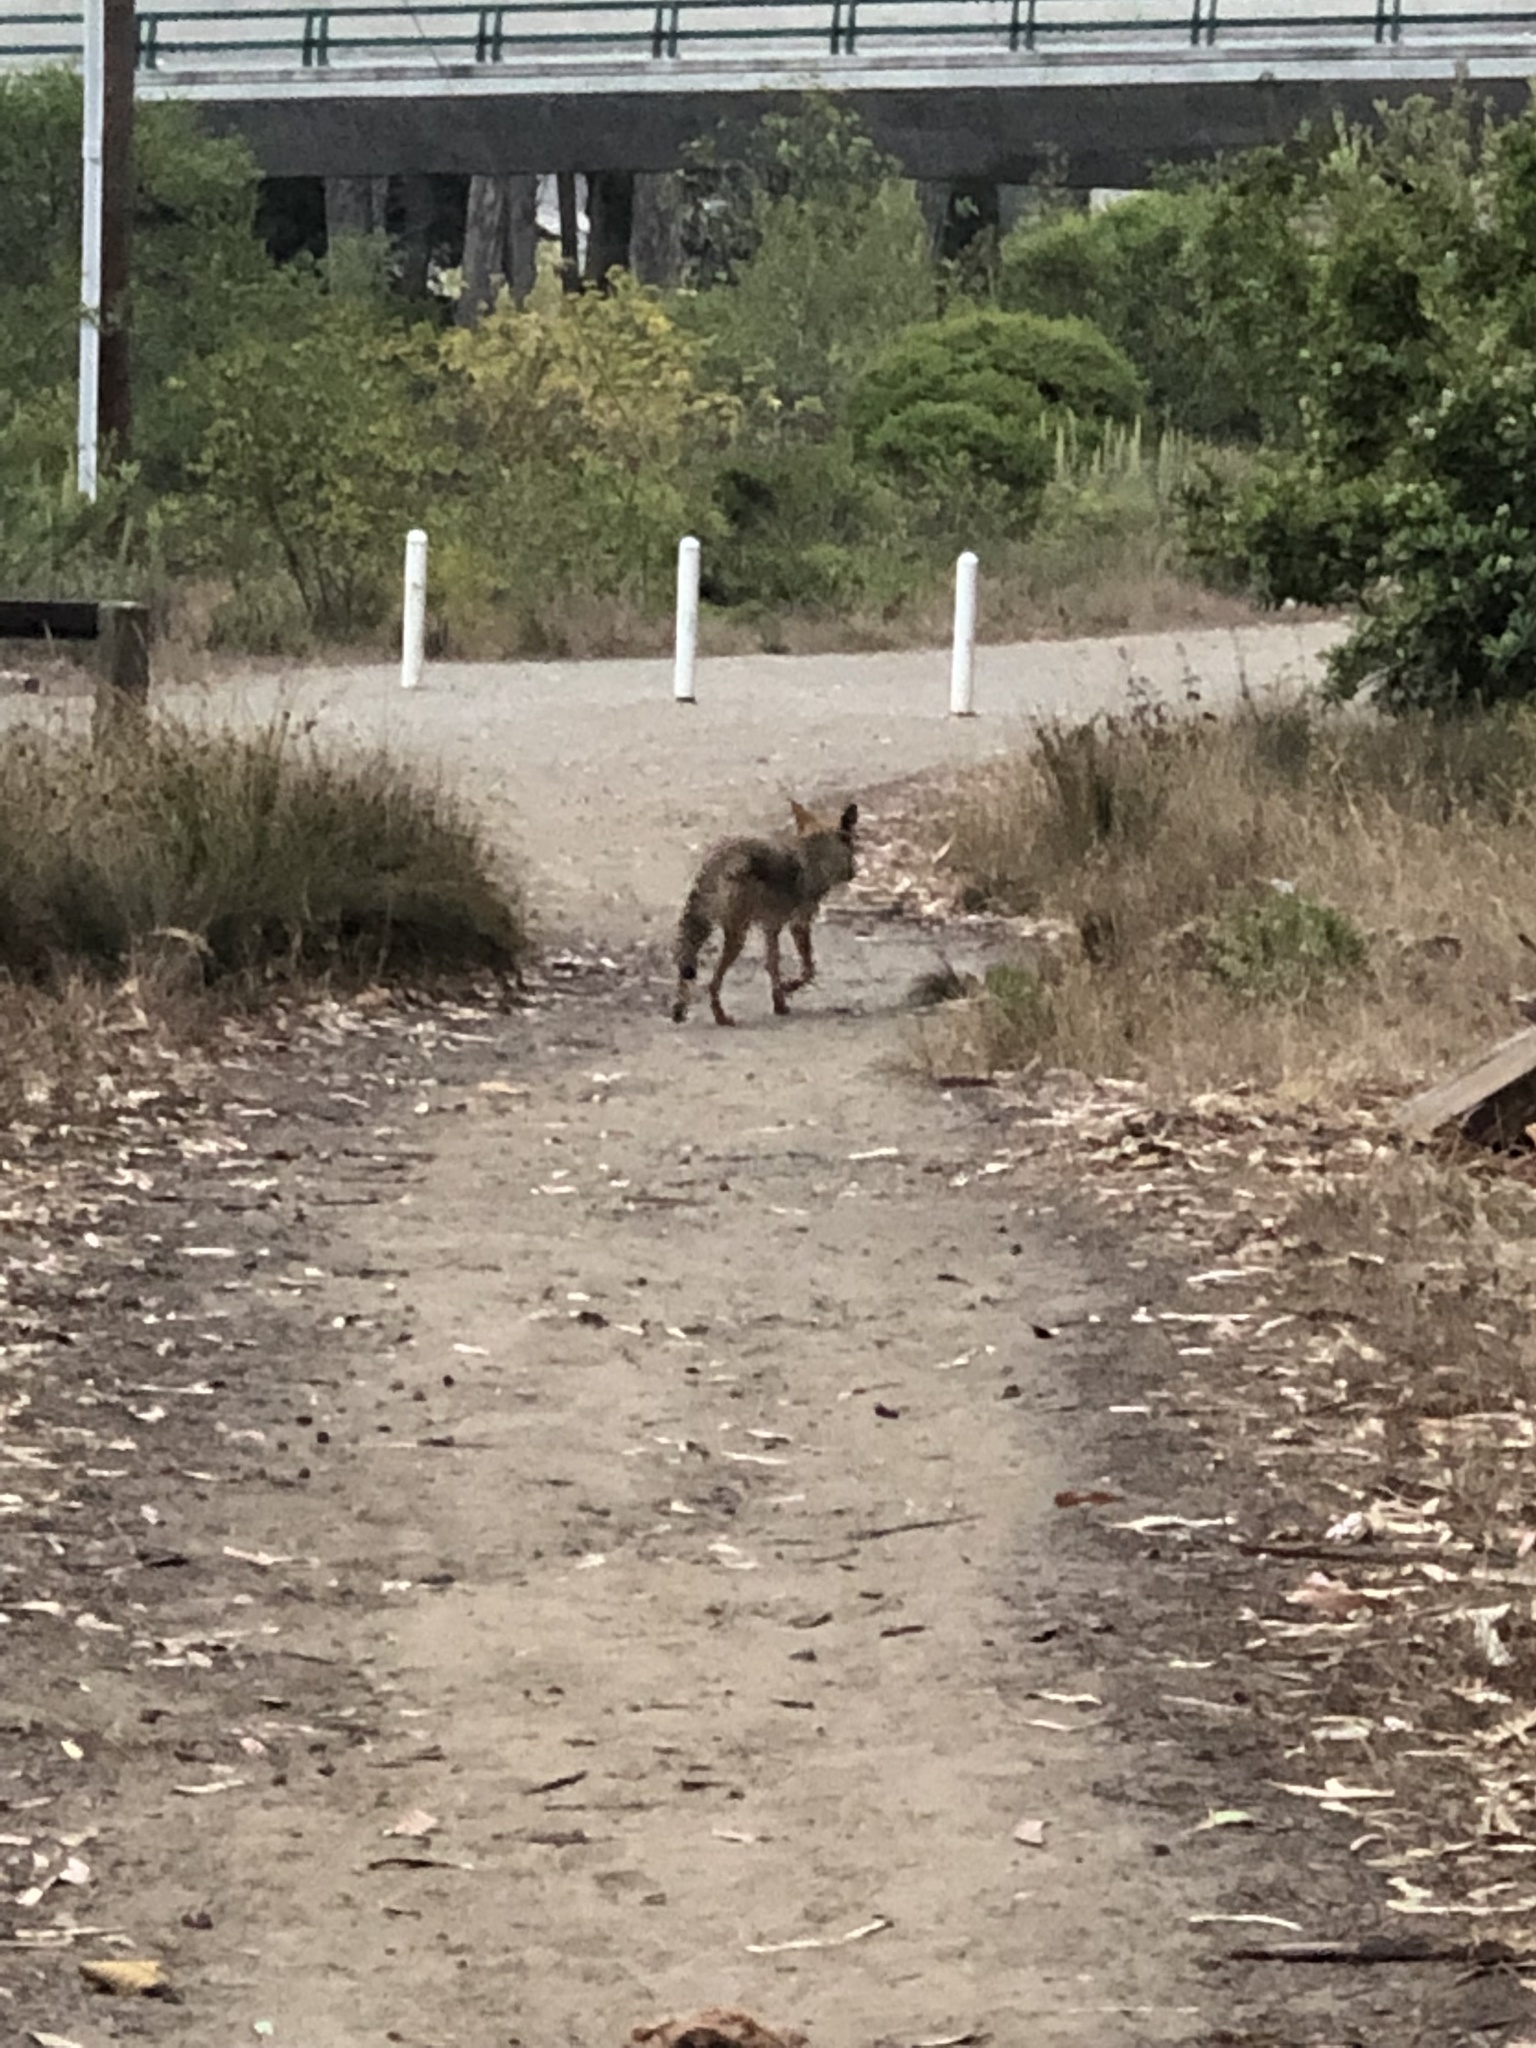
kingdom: Animalia
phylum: Chordata
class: Mammalia
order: Carnivora
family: Canidae
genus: Canis
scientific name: Canis latrans
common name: Coyote
